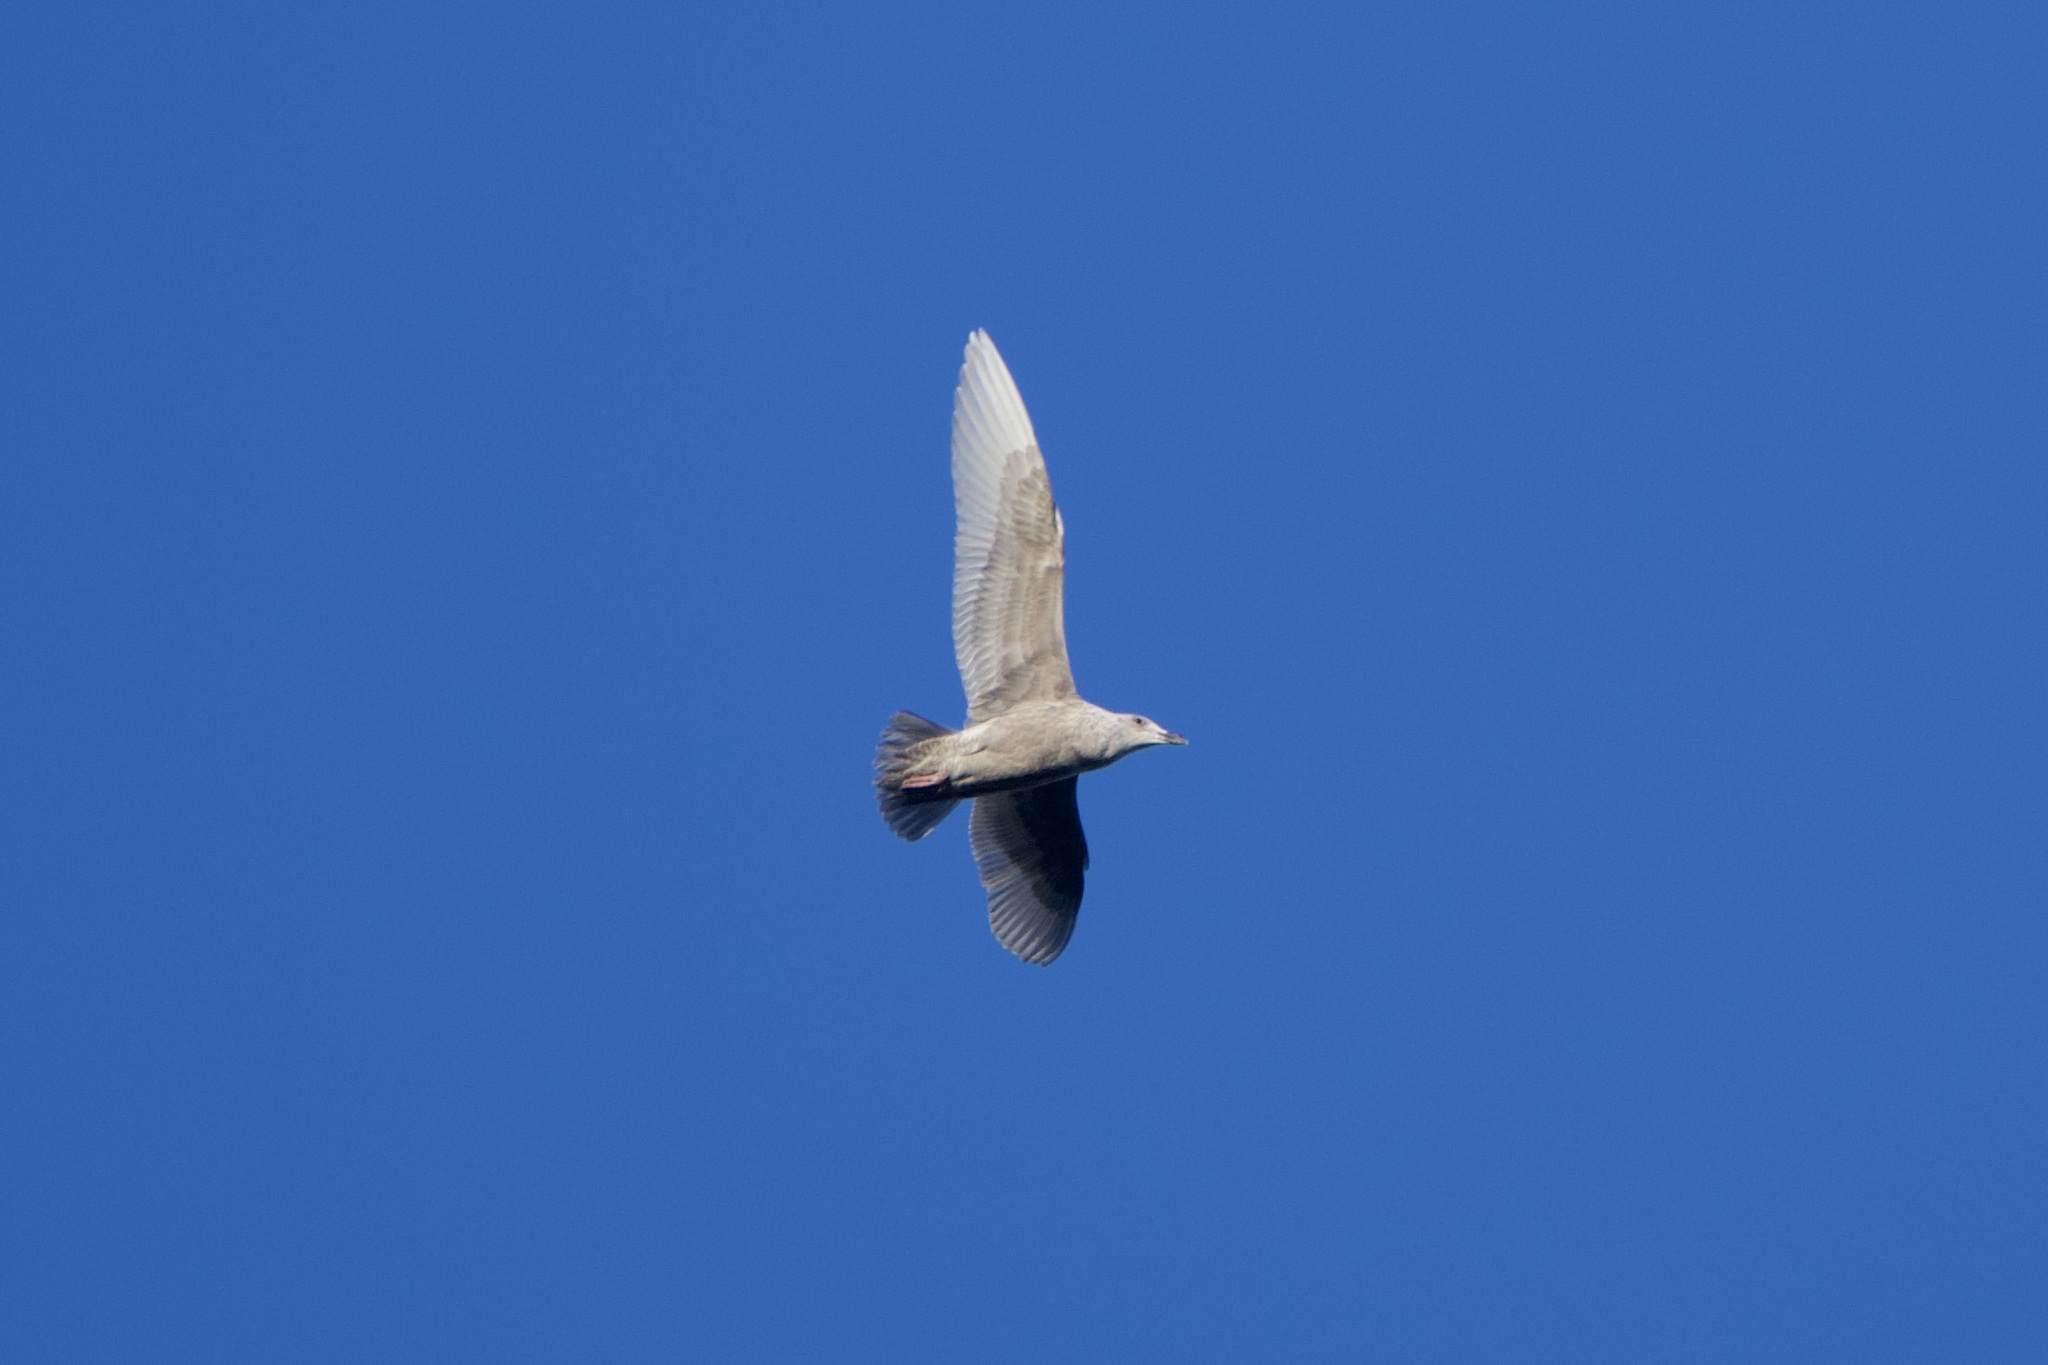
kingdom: Animalia
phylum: Chordata
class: Aves
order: Charadriiformes
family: Laridae
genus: Larus
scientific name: Larus glaucescens
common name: Glaucous-winged gull
